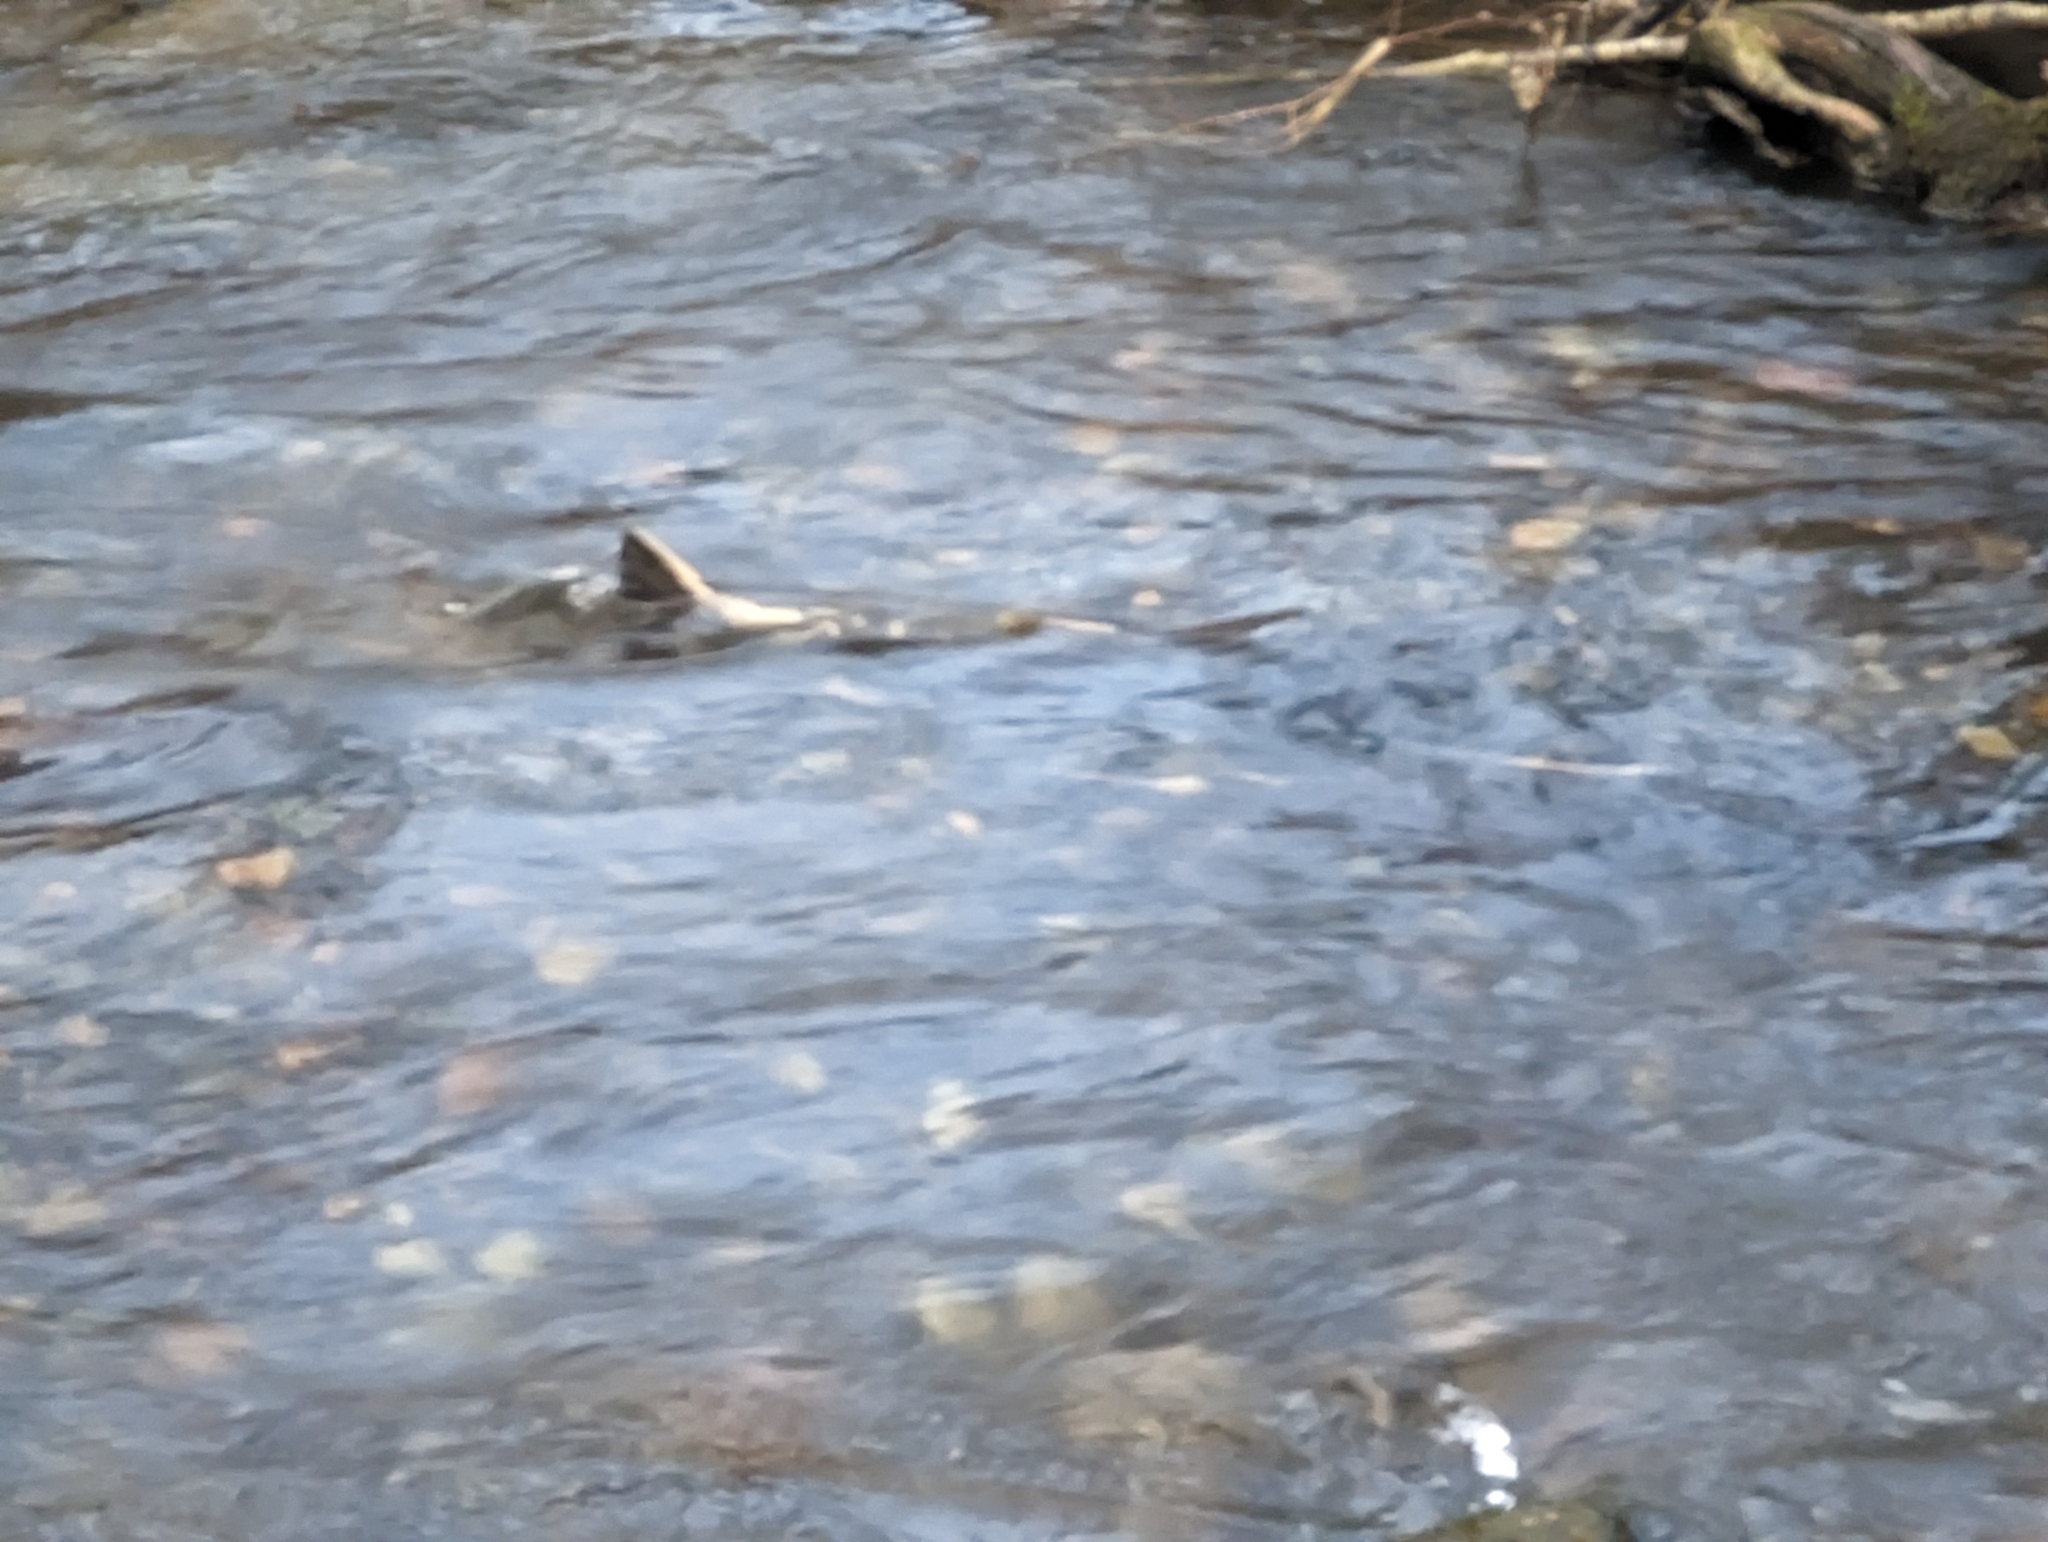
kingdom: Animalia
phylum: Chordata
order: Salmoniformes
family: Salmonidae
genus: Oncorhynchus
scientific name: Oncorhynchus keta
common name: Chum salmon
